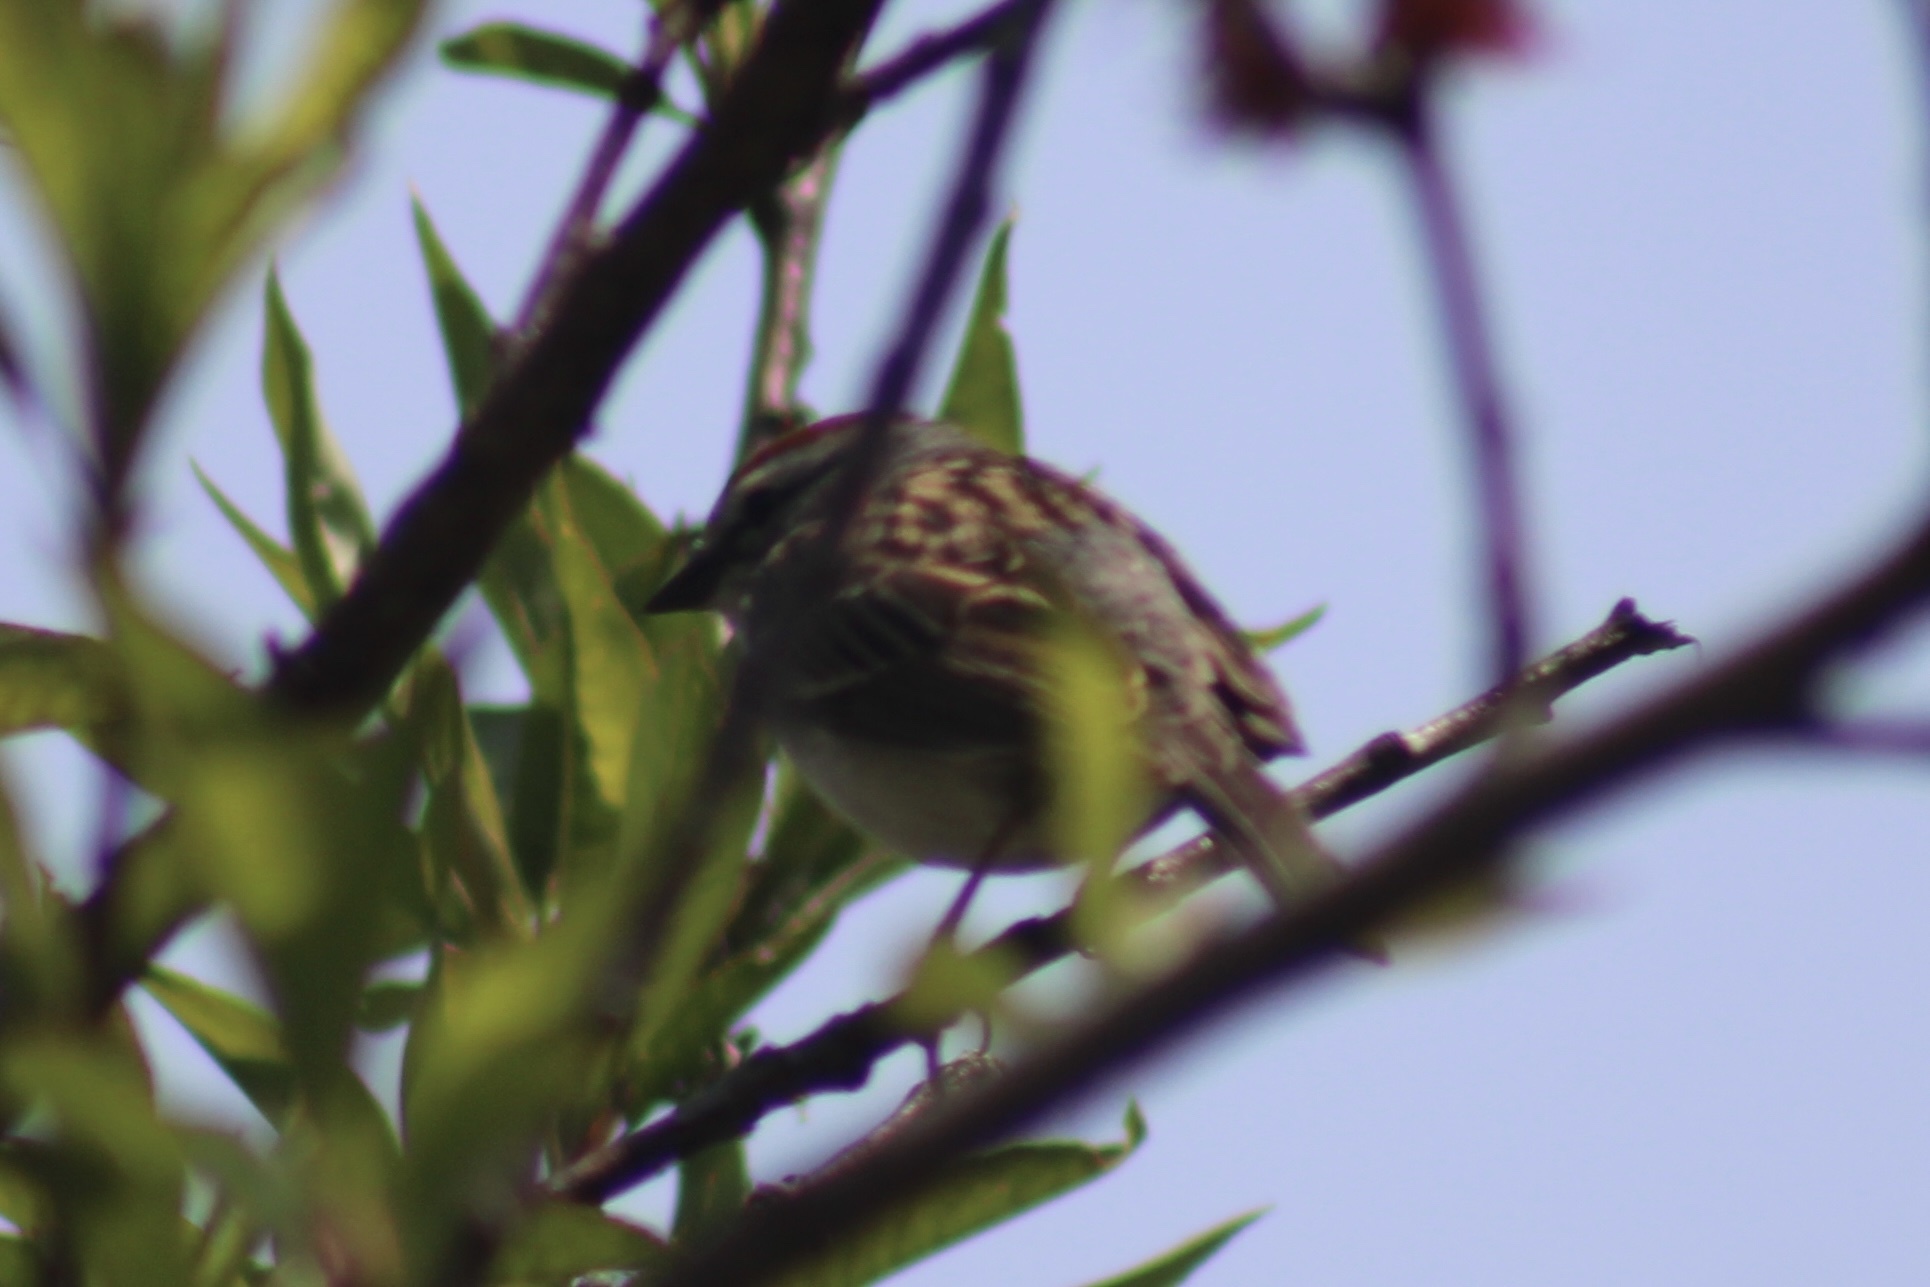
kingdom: Animalia
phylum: Chordata
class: Aves
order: Passeriformes
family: Passerellidae
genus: Spizella
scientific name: Spizella passerina
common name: Chipping sparrow
